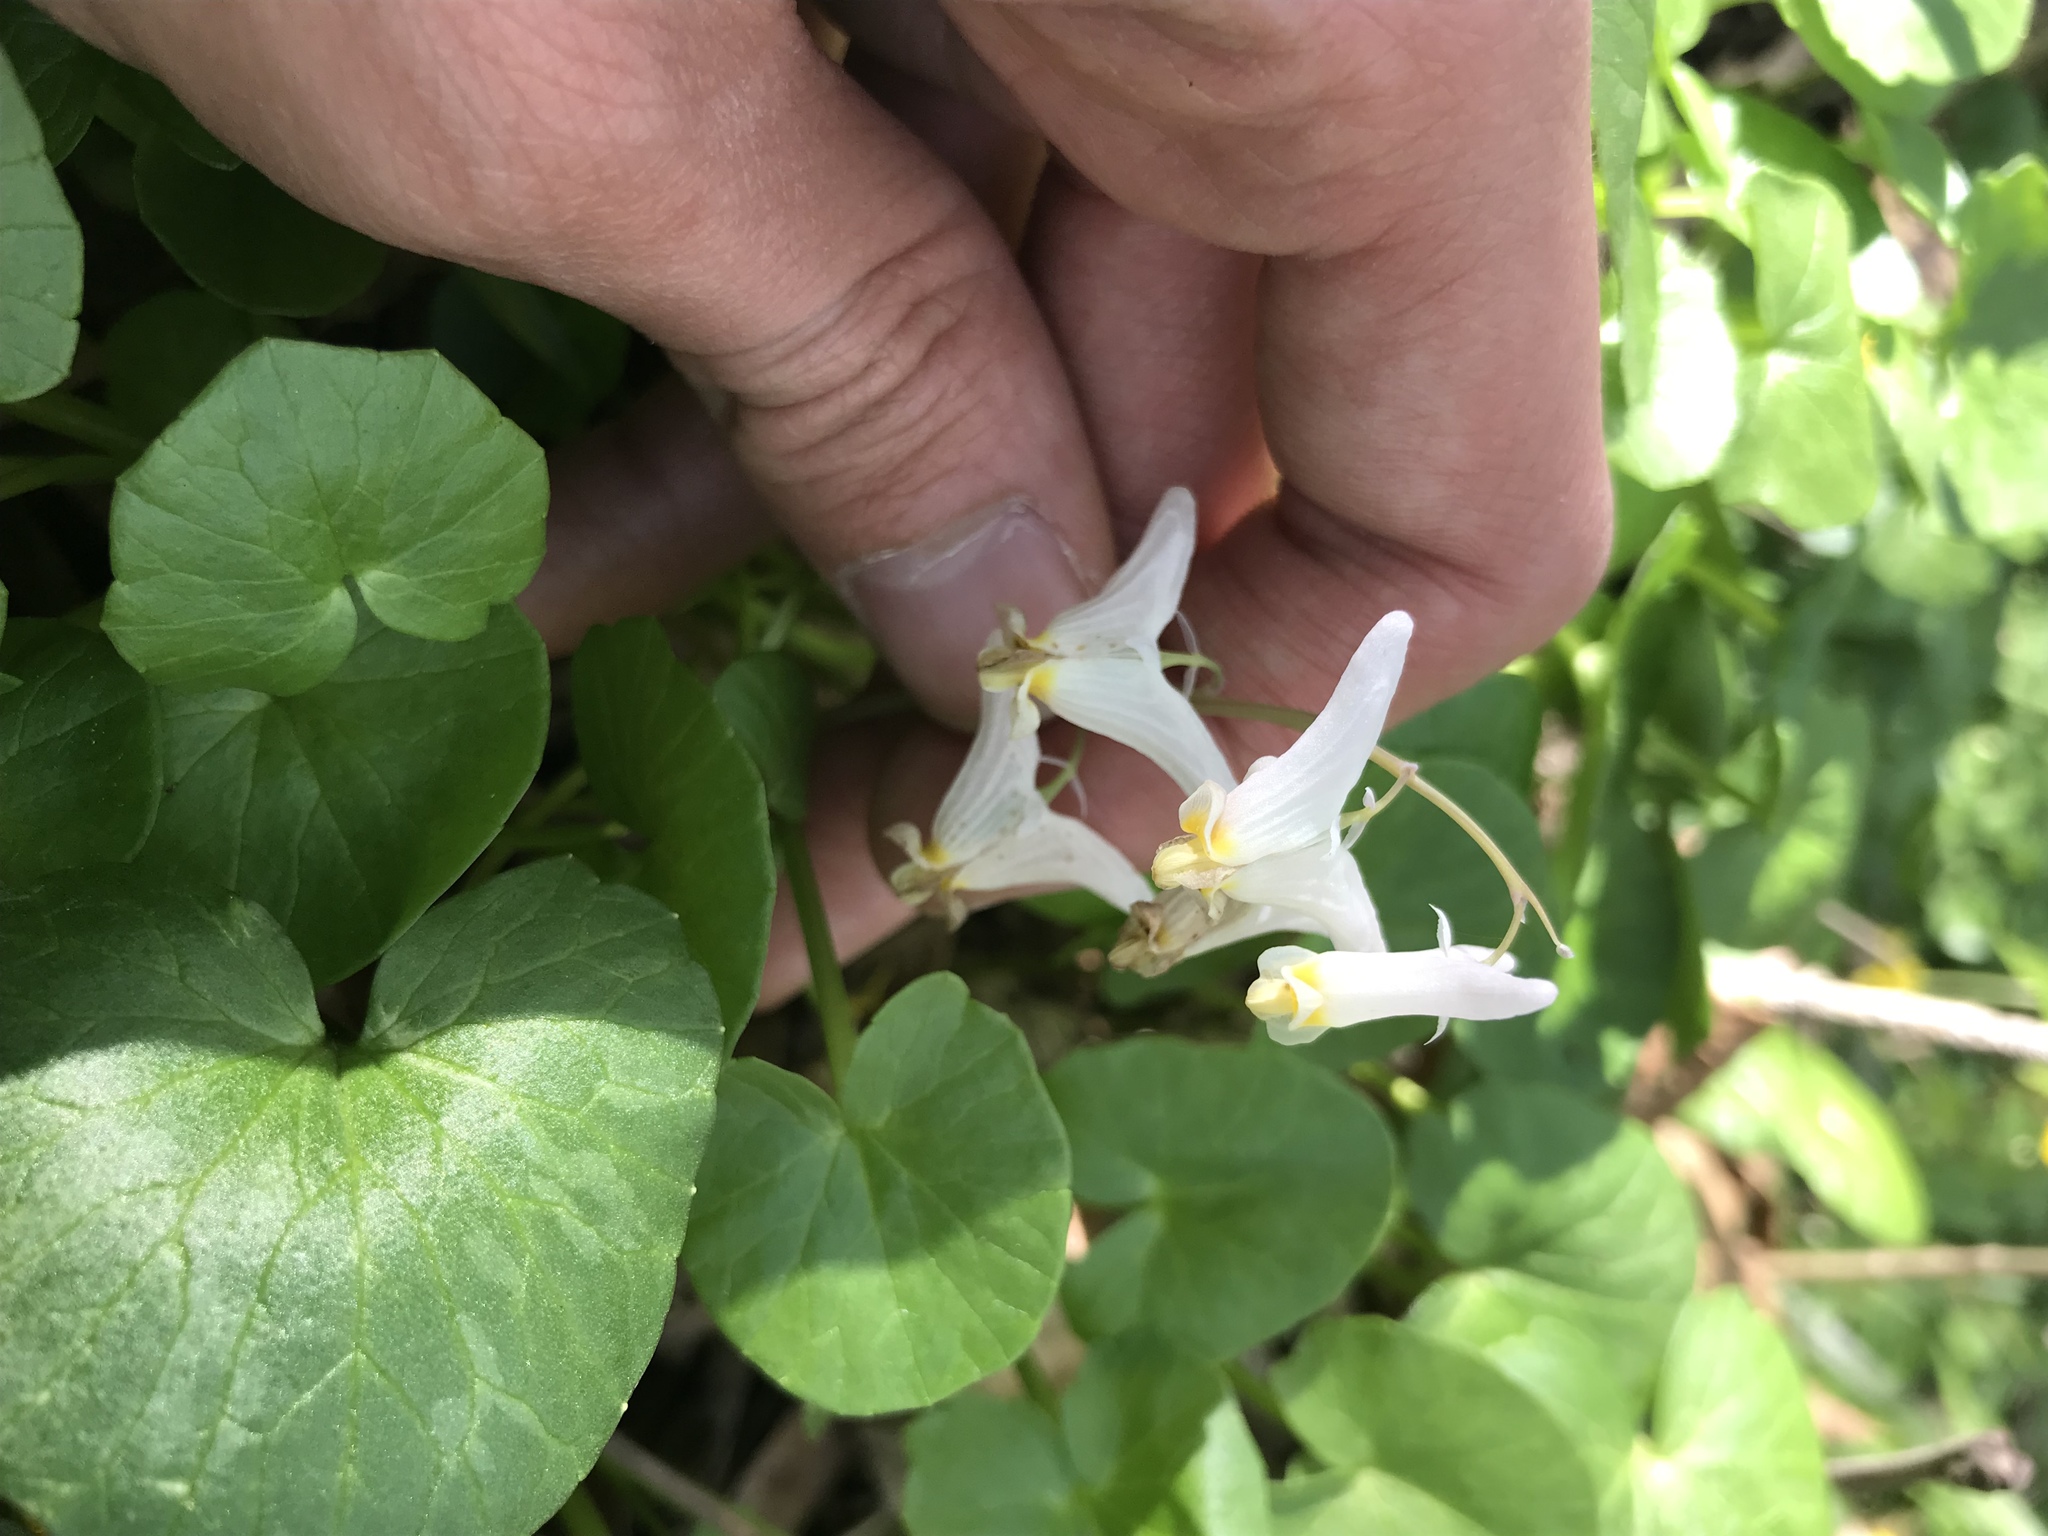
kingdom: Plantae
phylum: Tracheophyta
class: Magnoliopsida
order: Ranunculales
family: Papaveraceae
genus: Dicentra
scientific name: Dicentra cucullaria
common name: Dutchman's breeches
